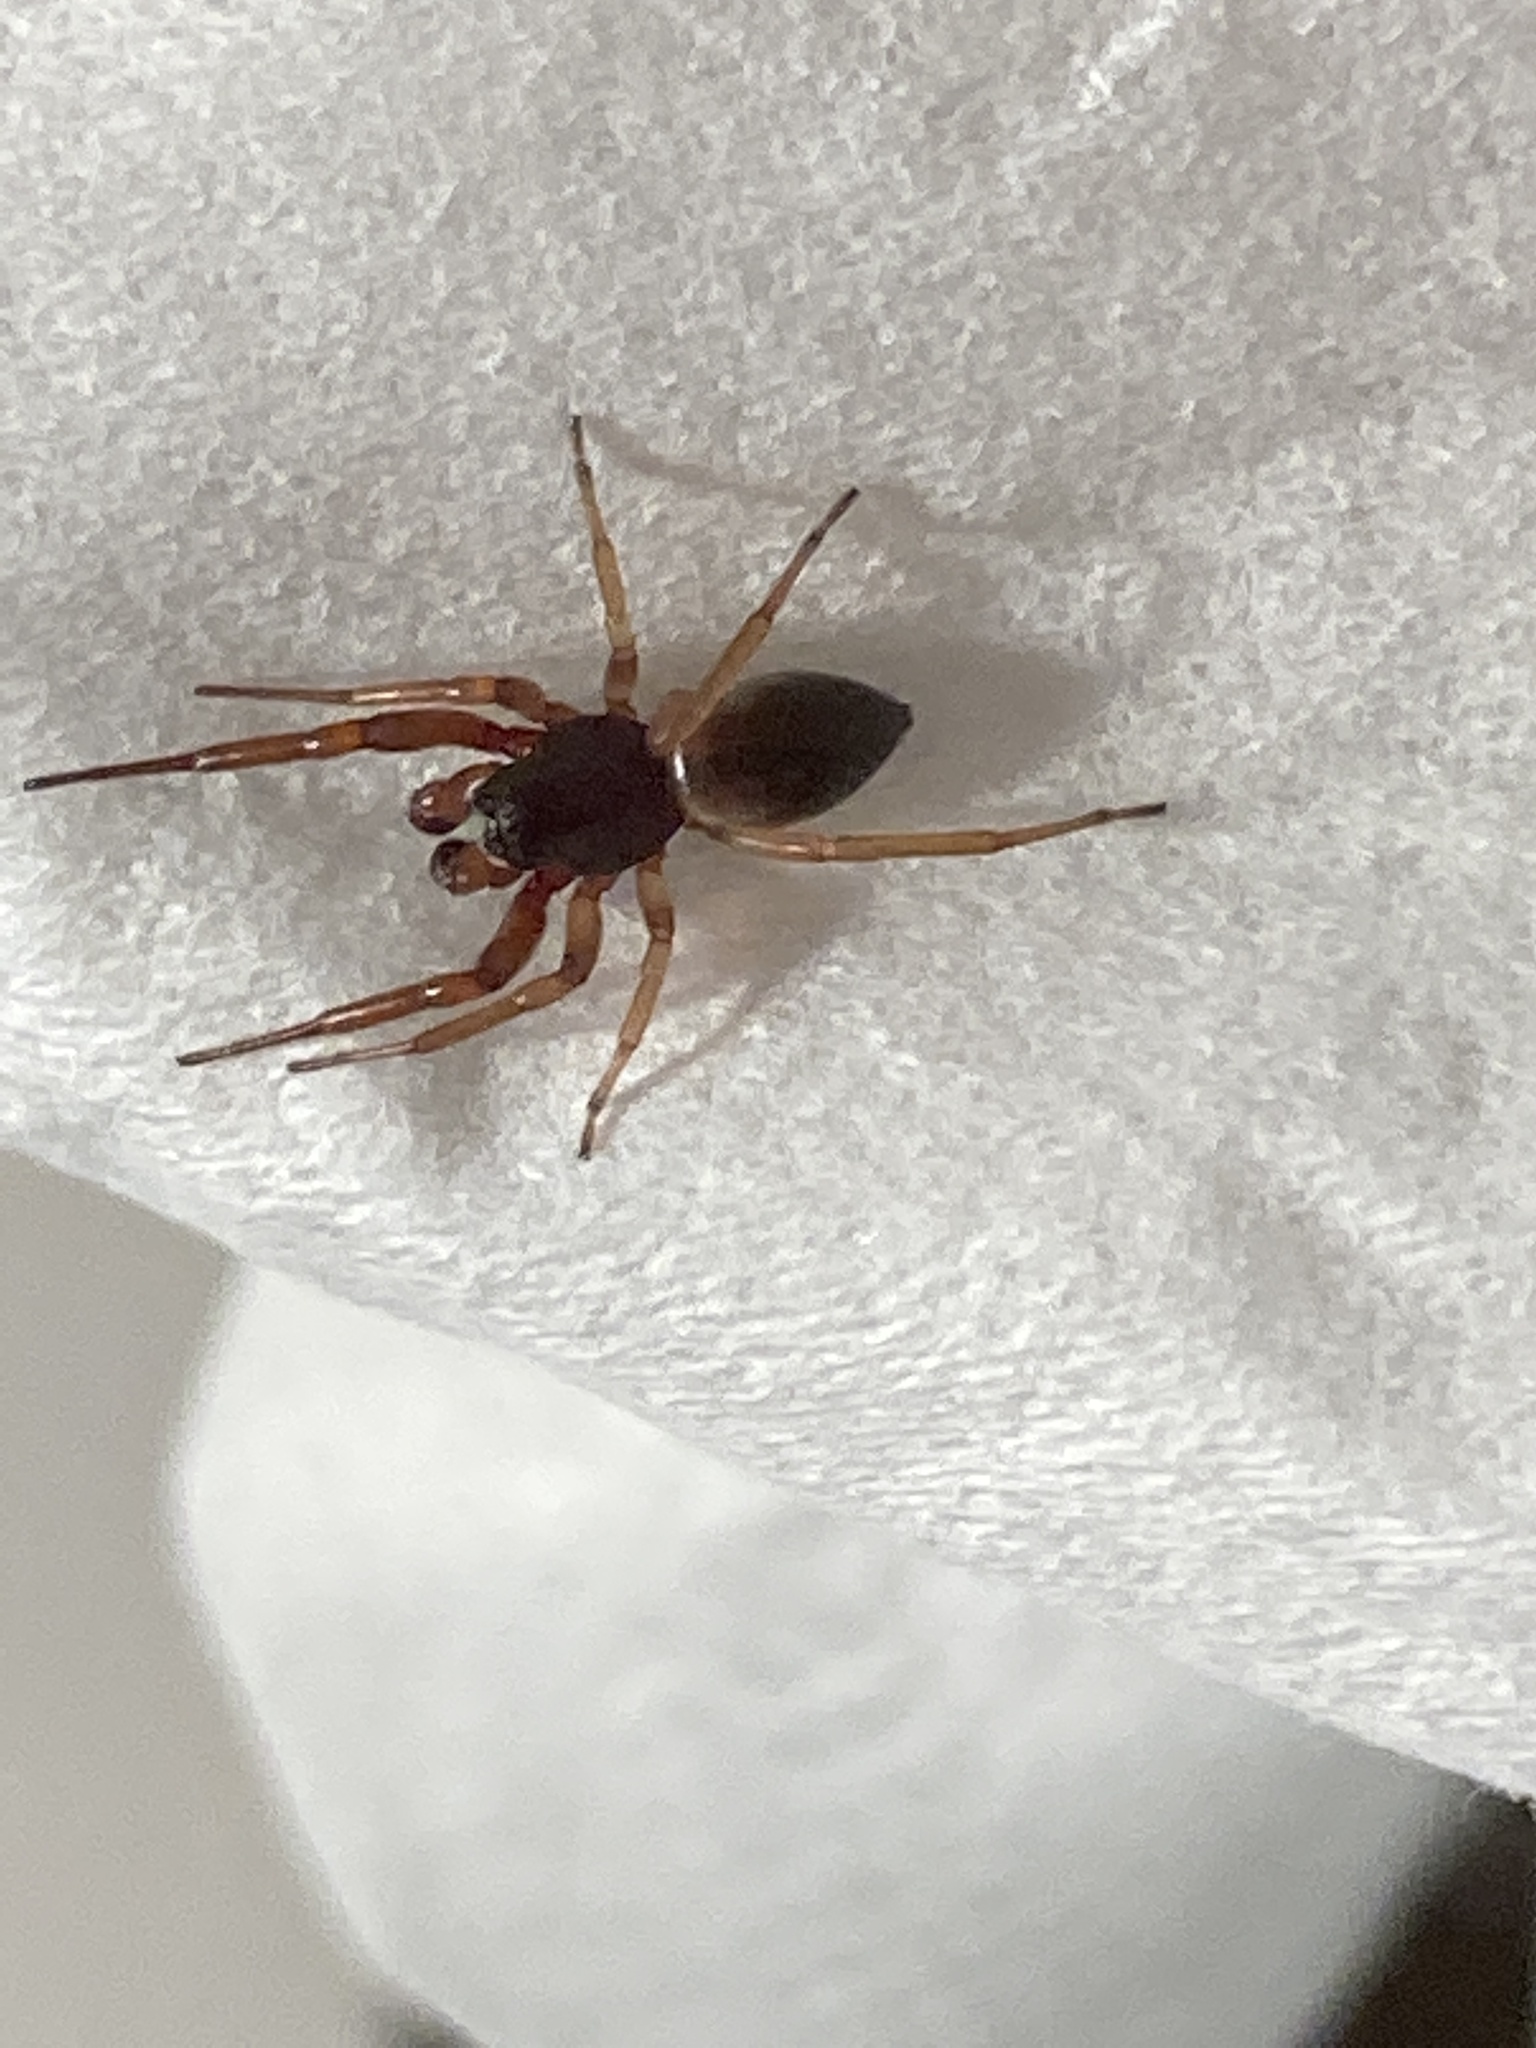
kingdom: Animalia
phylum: Arthropoda
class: Arachnida
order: Araneae
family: Trachelidae
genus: Trachelas
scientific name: Trachelas
